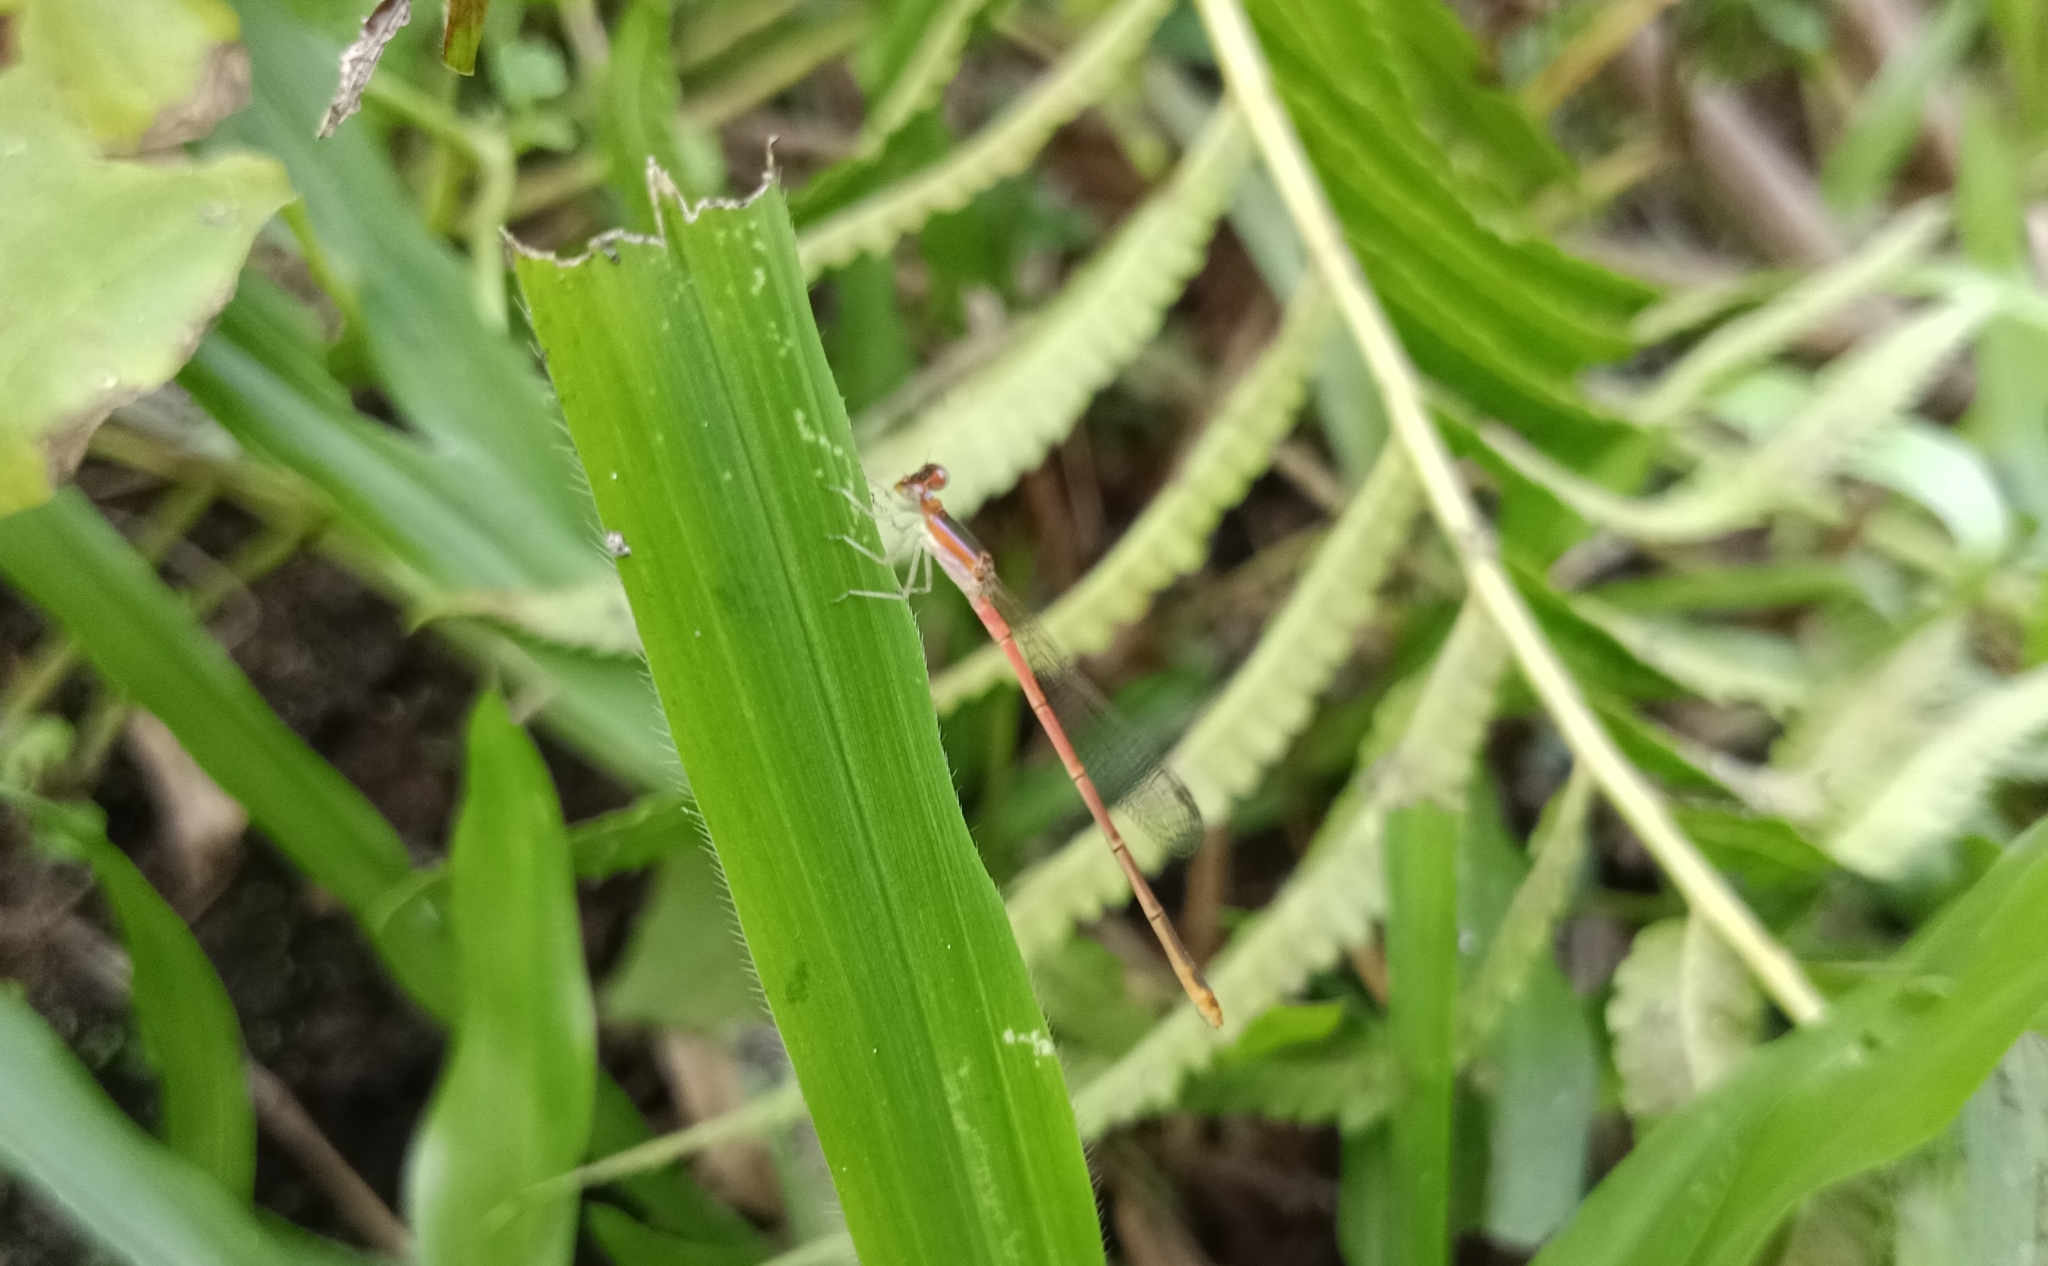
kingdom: Animalia
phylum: Arthropoda
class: Insecta
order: Odonata
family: Coenagrionidae
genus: Agriocnemis
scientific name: Agriocnemis pygmaea
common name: Pygmy wisp
